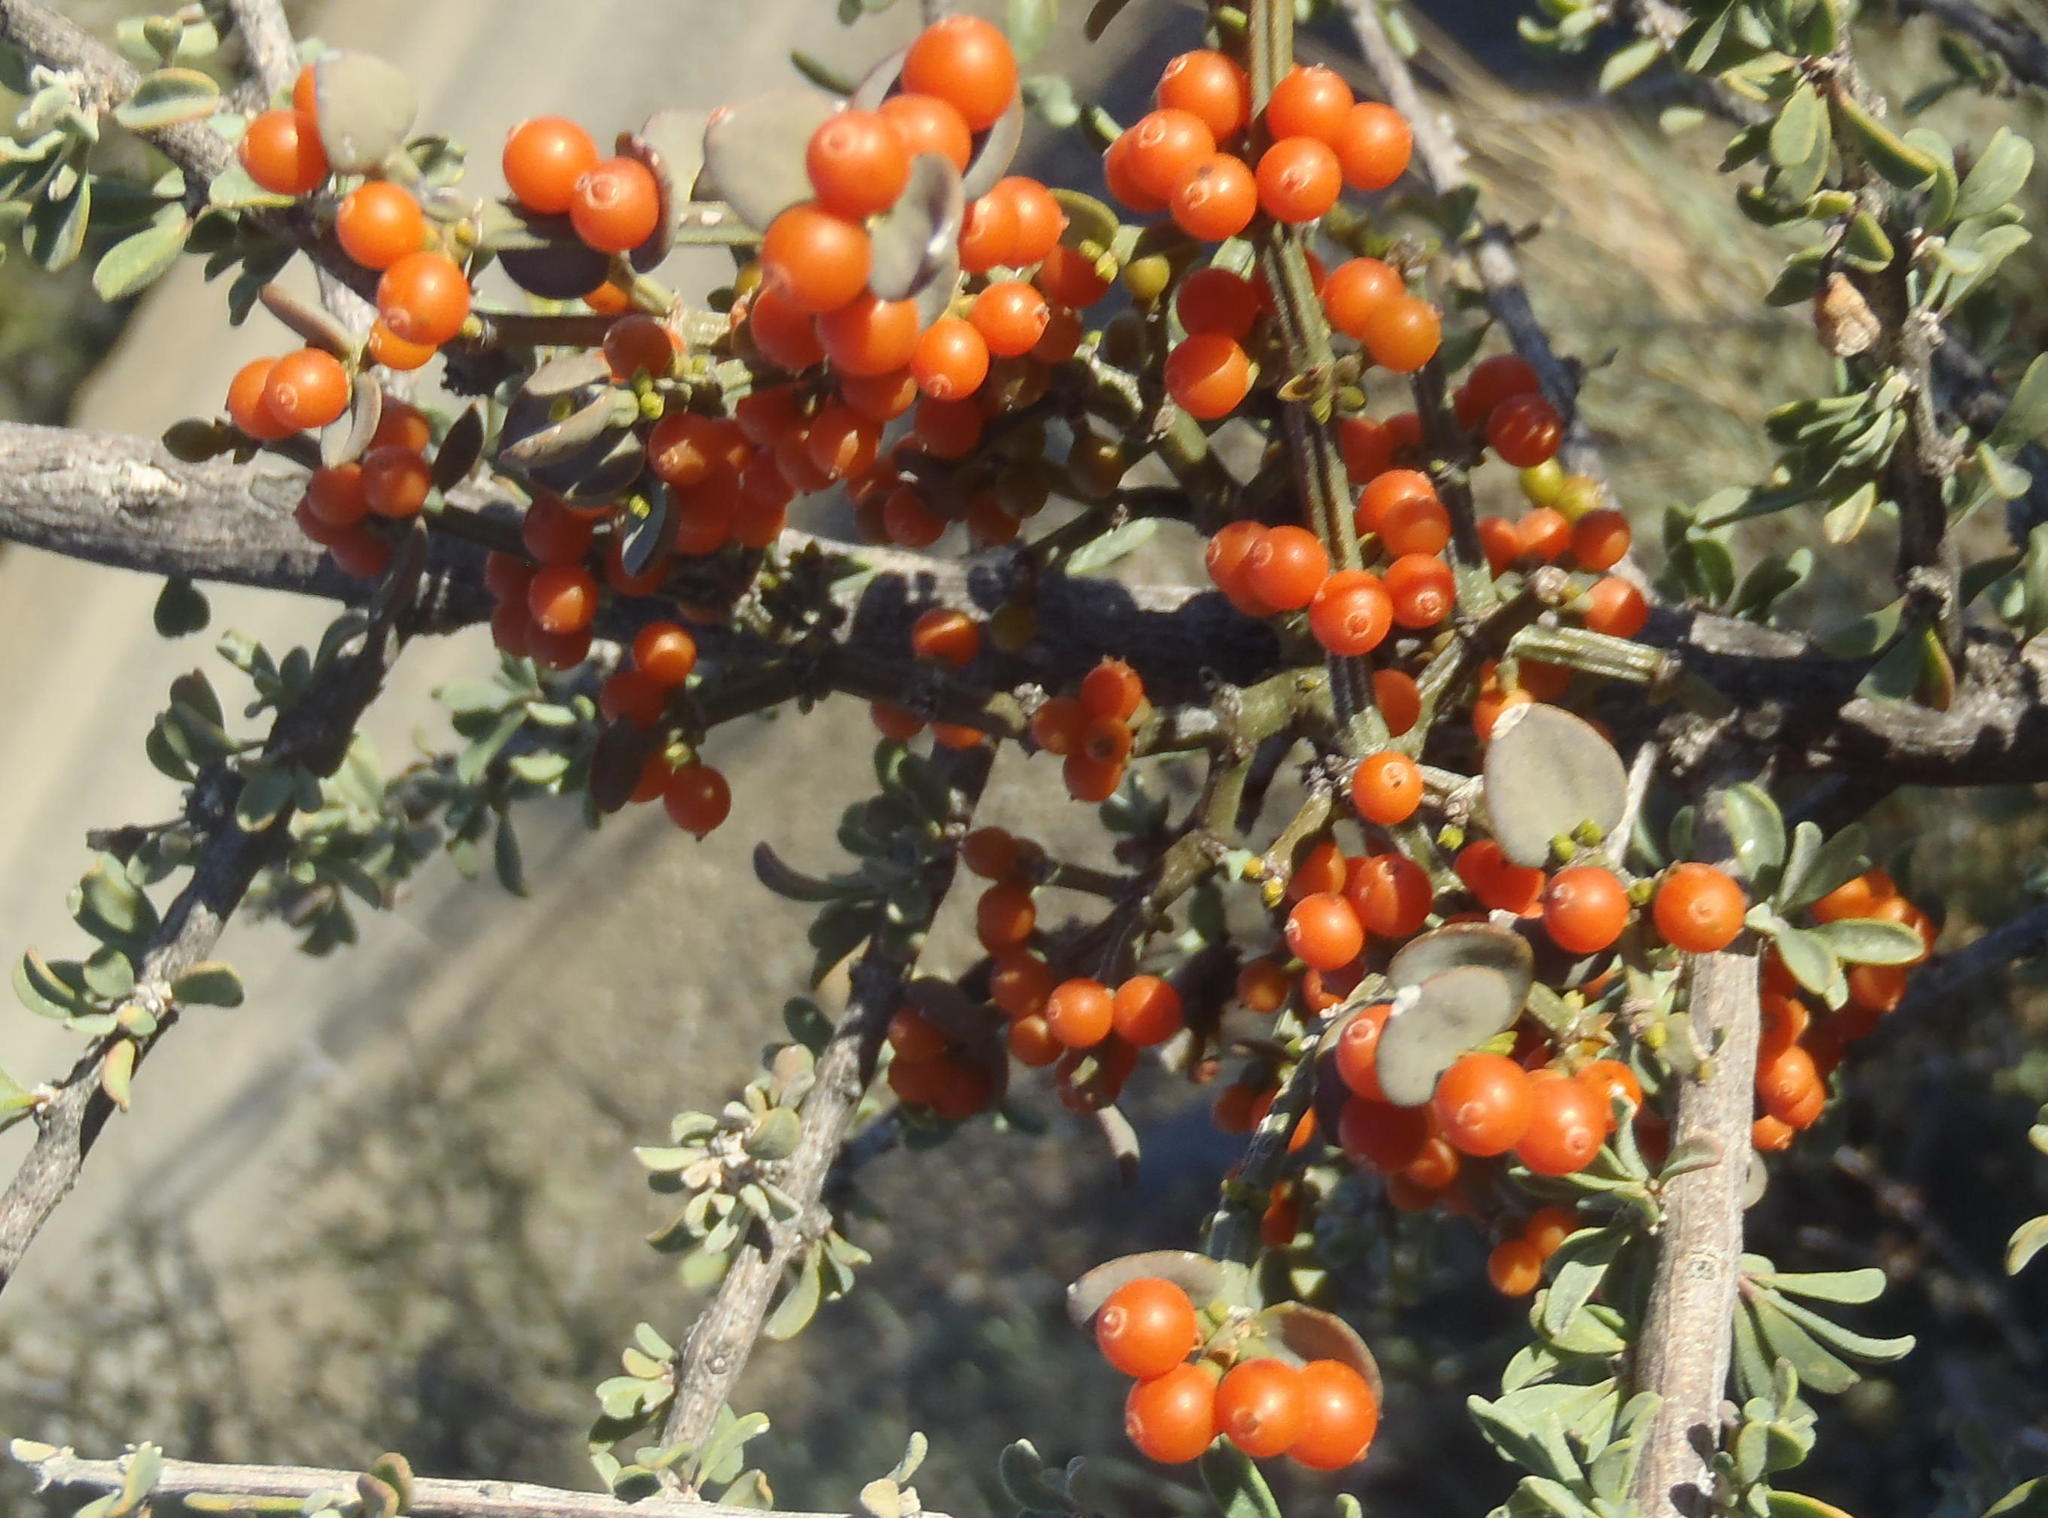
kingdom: Plantae
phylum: Tracheophyta
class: Magnoliopsida
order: Santalales
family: Viscaceae
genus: Viscum
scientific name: Viscum rotundifolium
